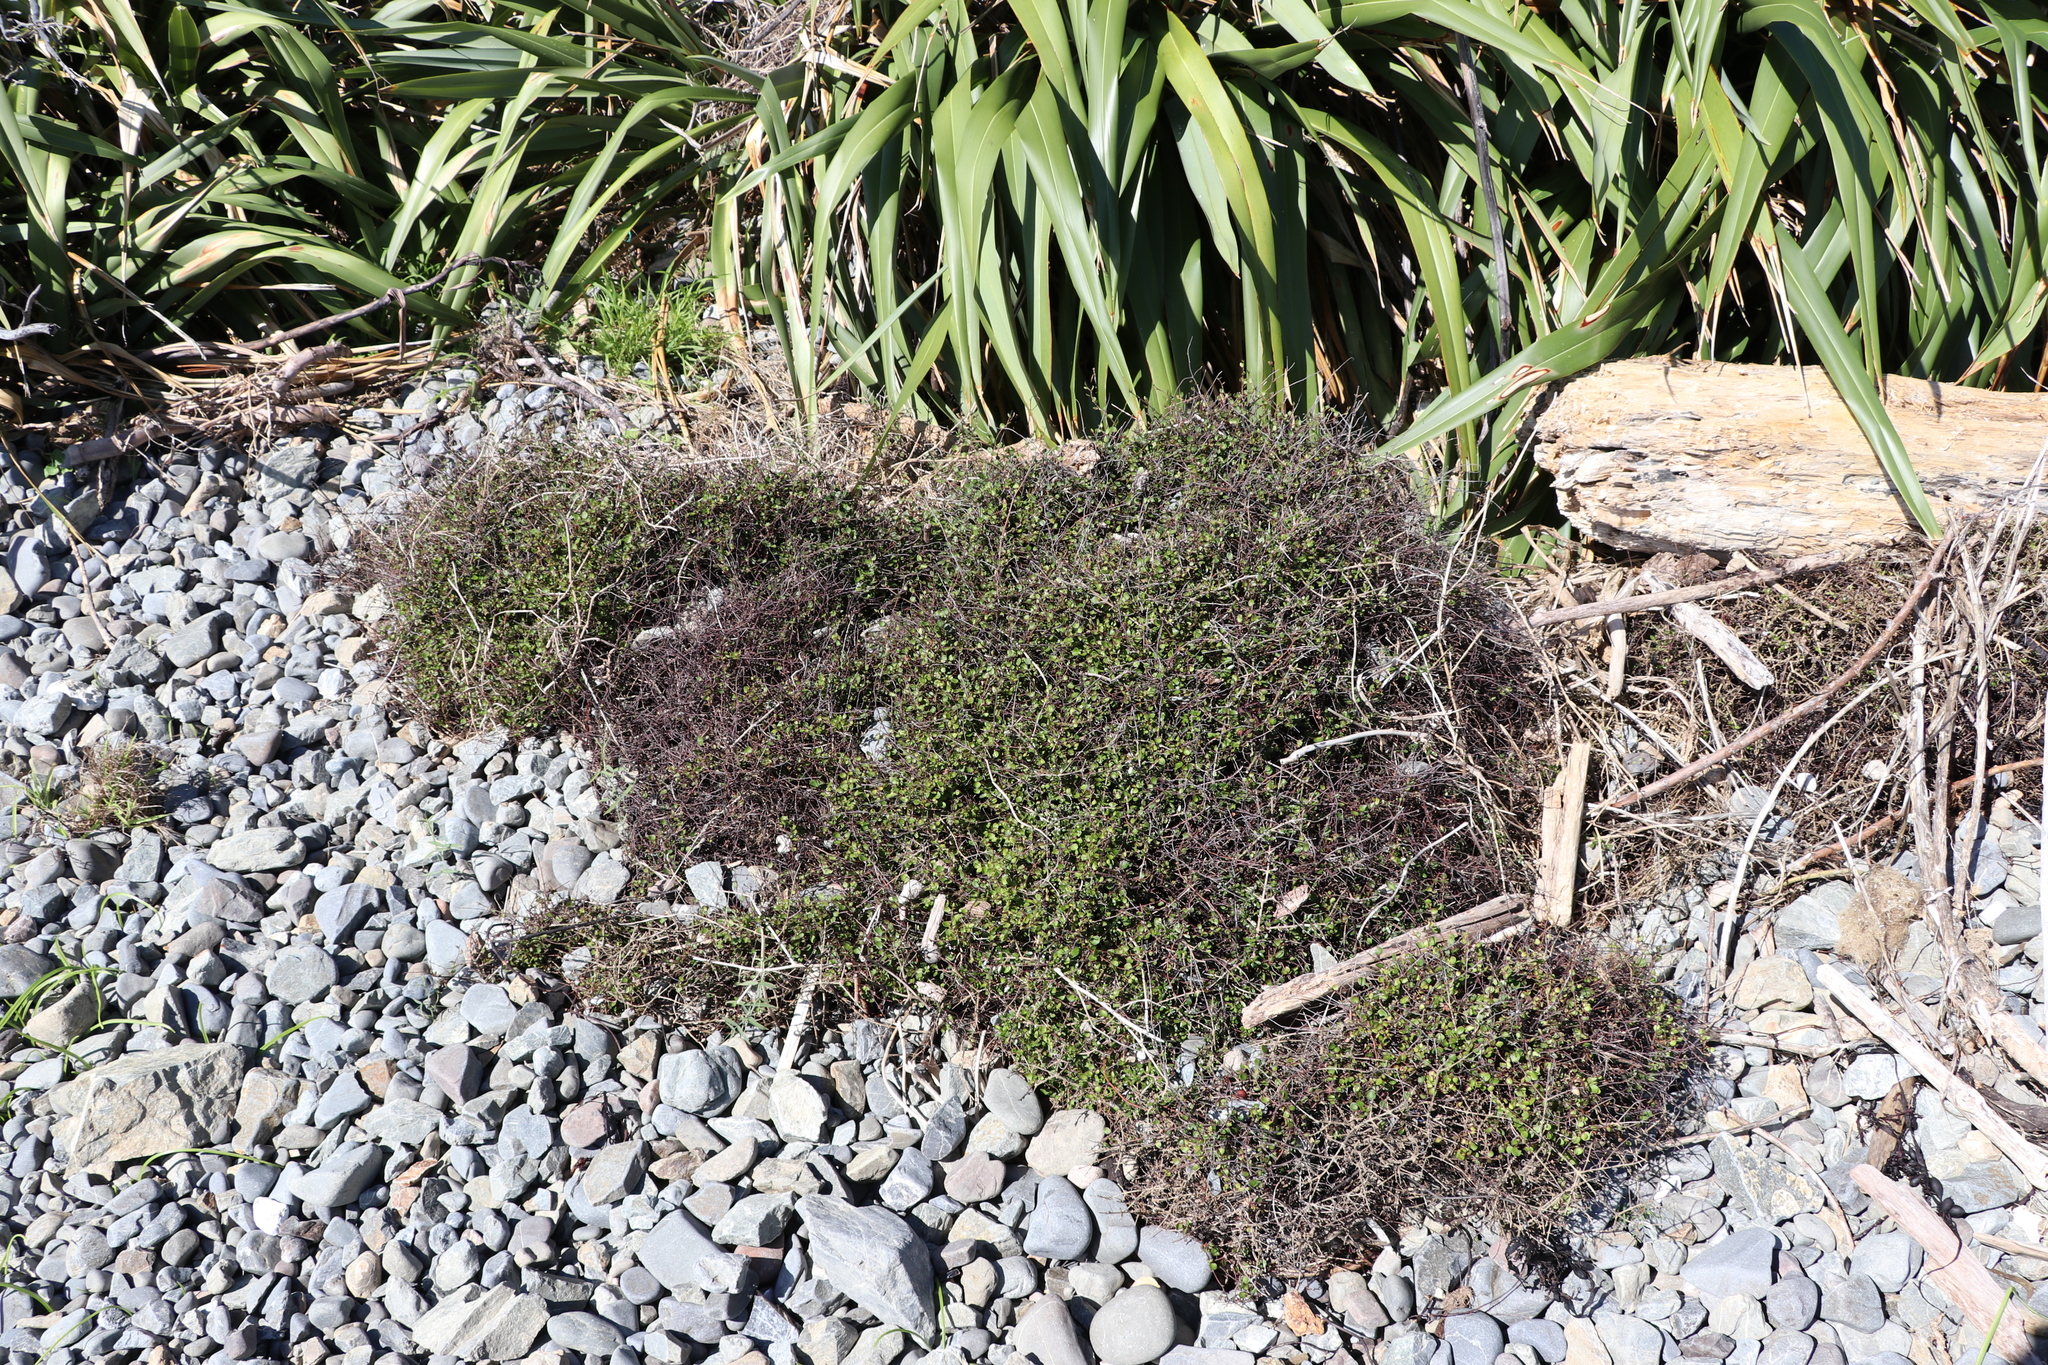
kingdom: Plantae
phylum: Tracheophyta
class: Magnoliopsida
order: Caryophyllales
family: Polygonaceae
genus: Muehlenbeckia
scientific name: Muehlenbeckia axillaris
